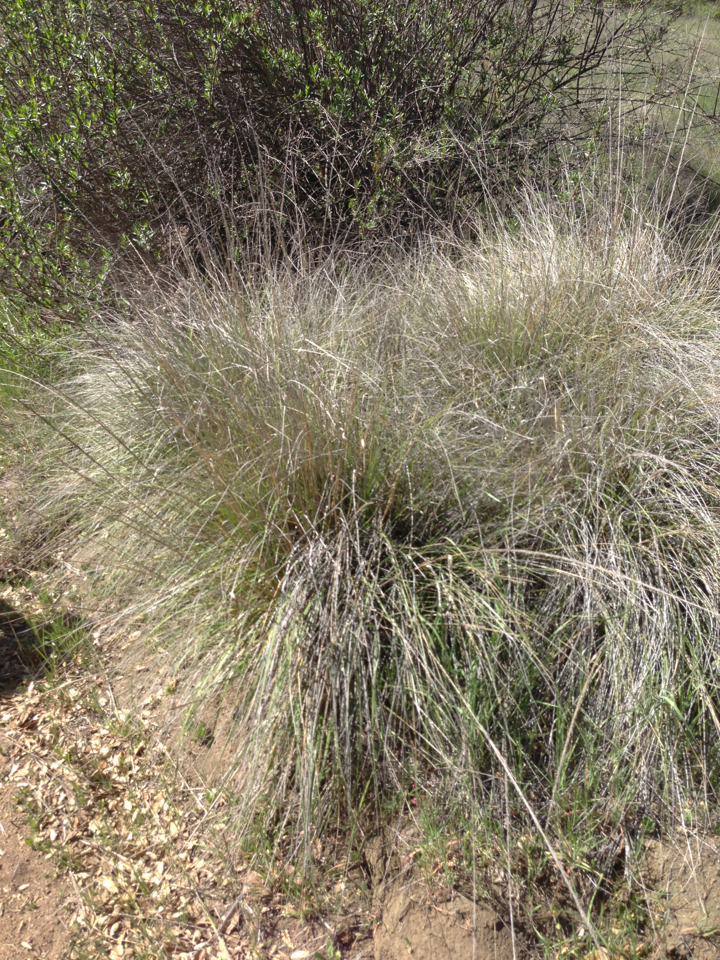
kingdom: Plantae
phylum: Tracheophyta
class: Liliopsida
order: Poales
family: Poaceae
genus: Muhlenbergia
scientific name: Muhlenbergia rigens
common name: Deer grass
